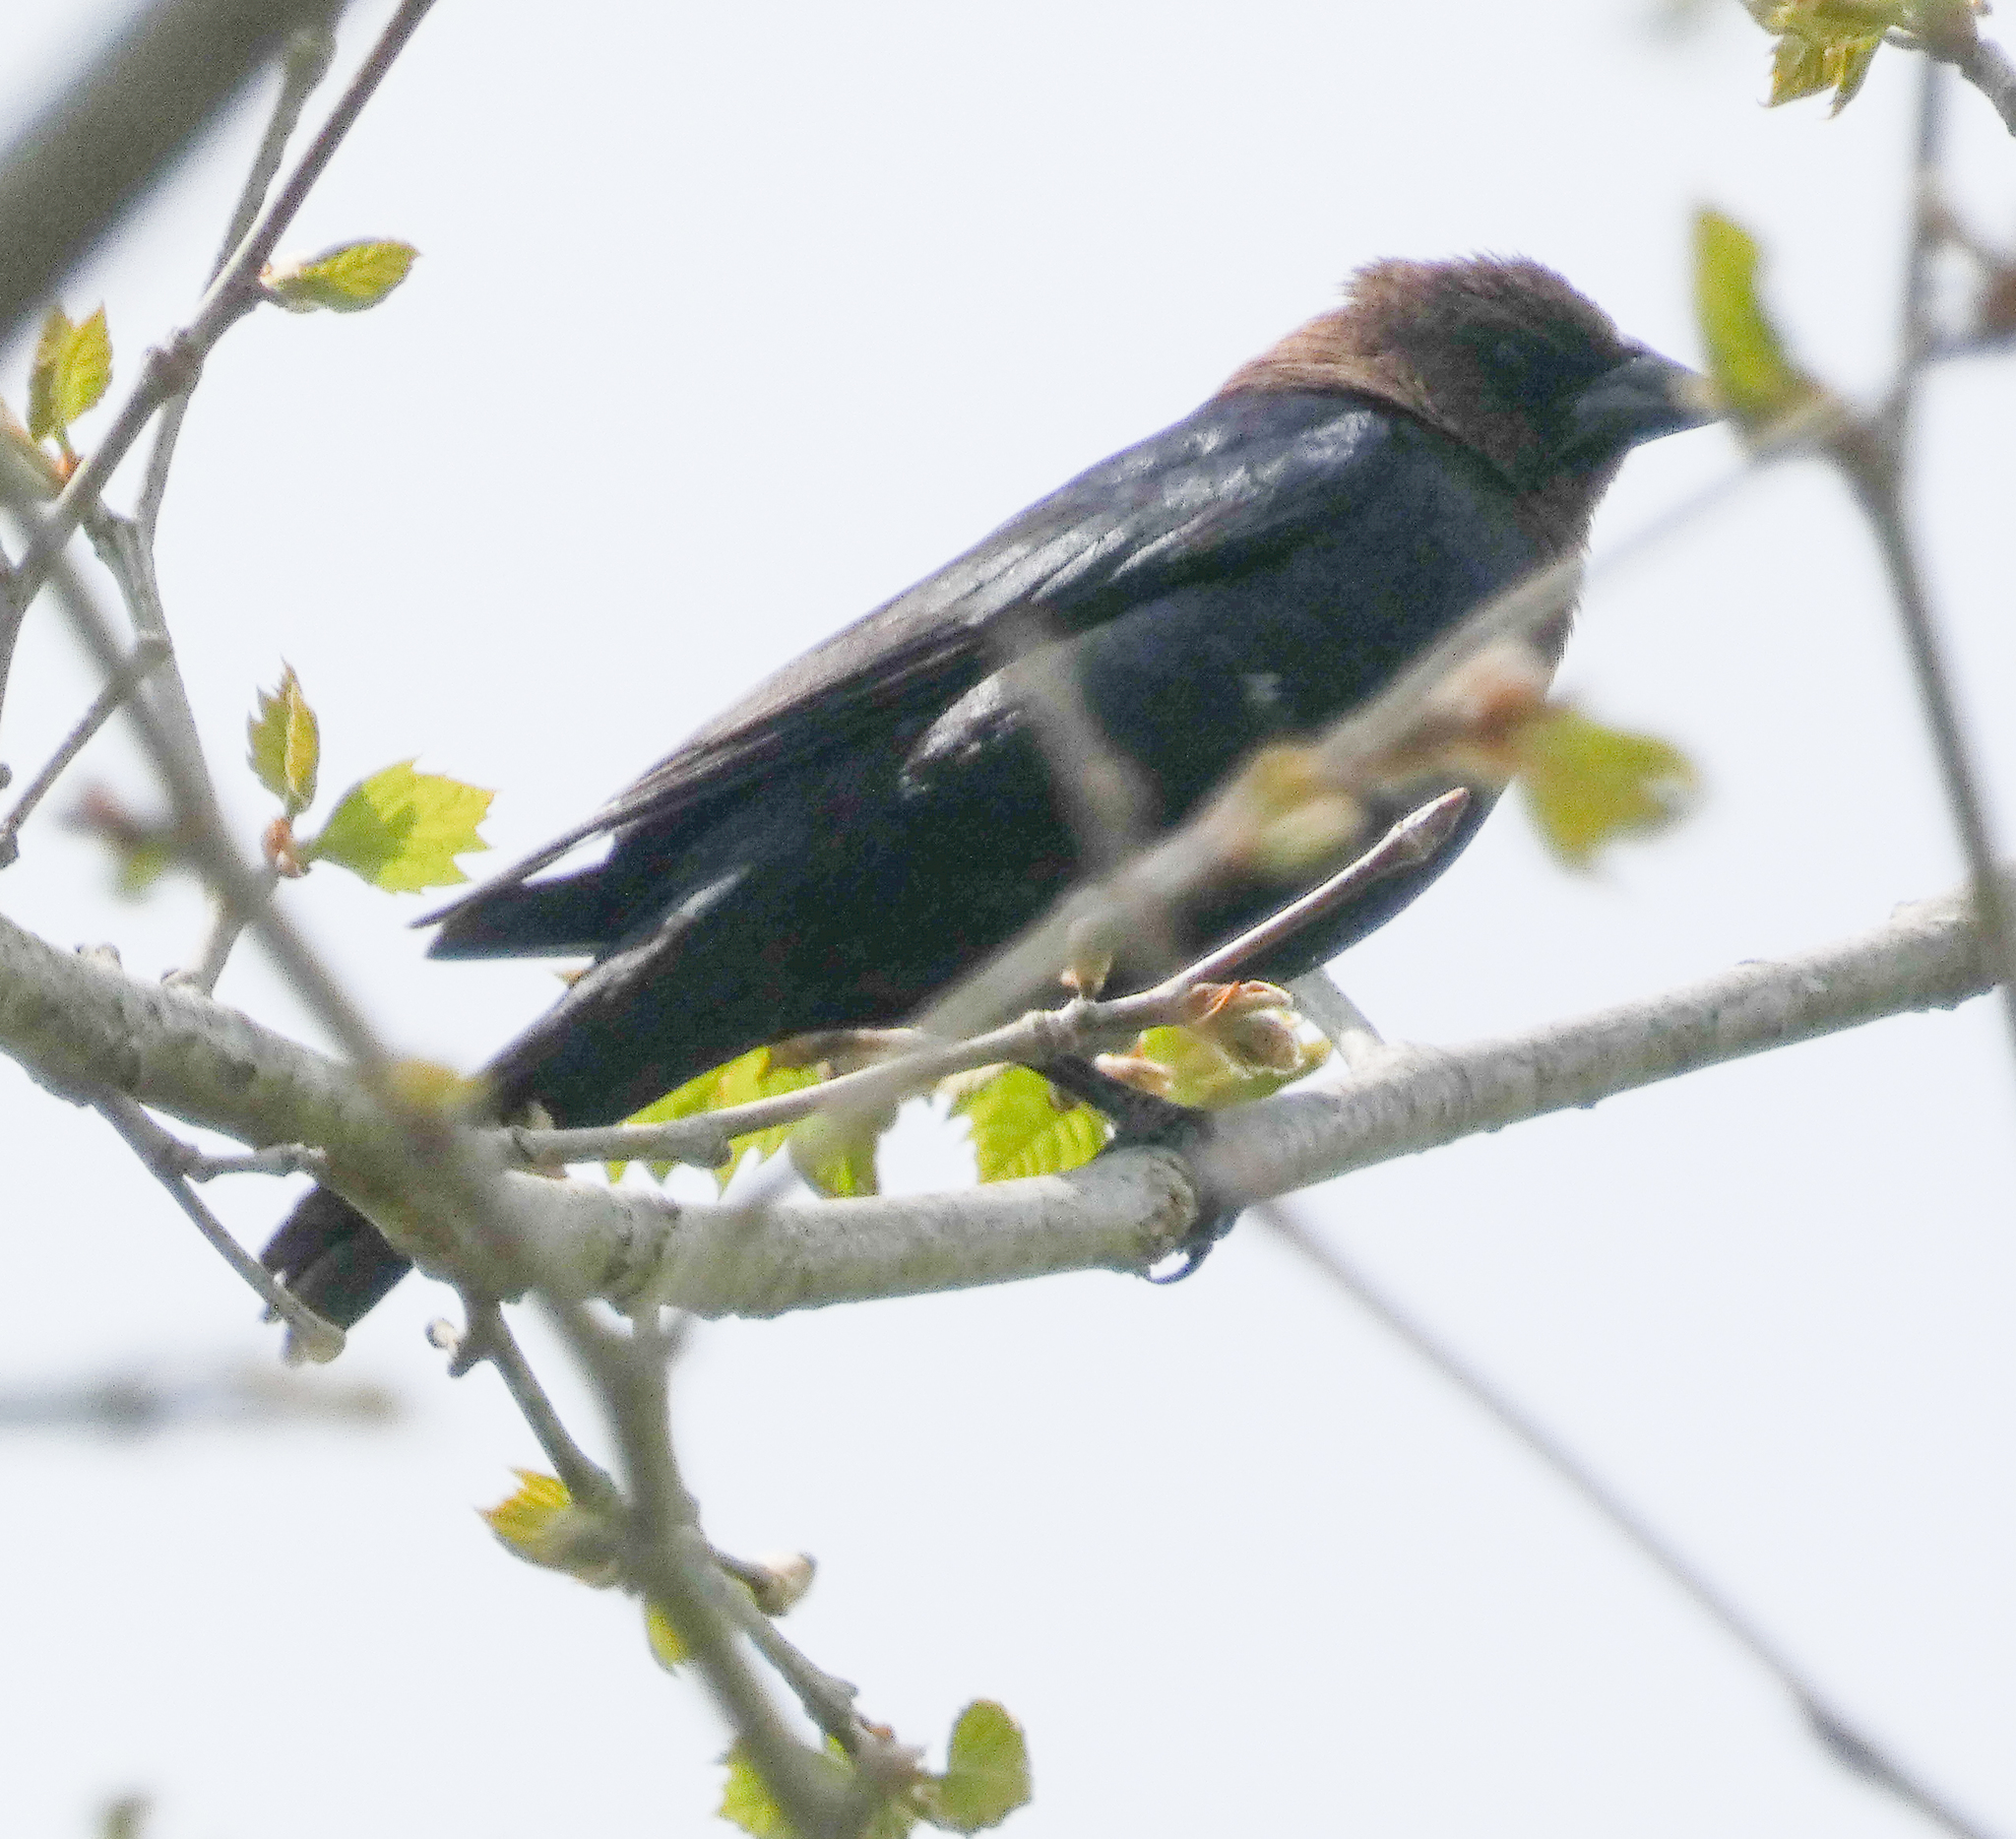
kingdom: Animalia
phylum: Chordata
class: Aves
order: Passeriformes
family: Icteridae
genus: Molothrus
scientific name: Molothrus ater
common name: Brown-headed cowbird
